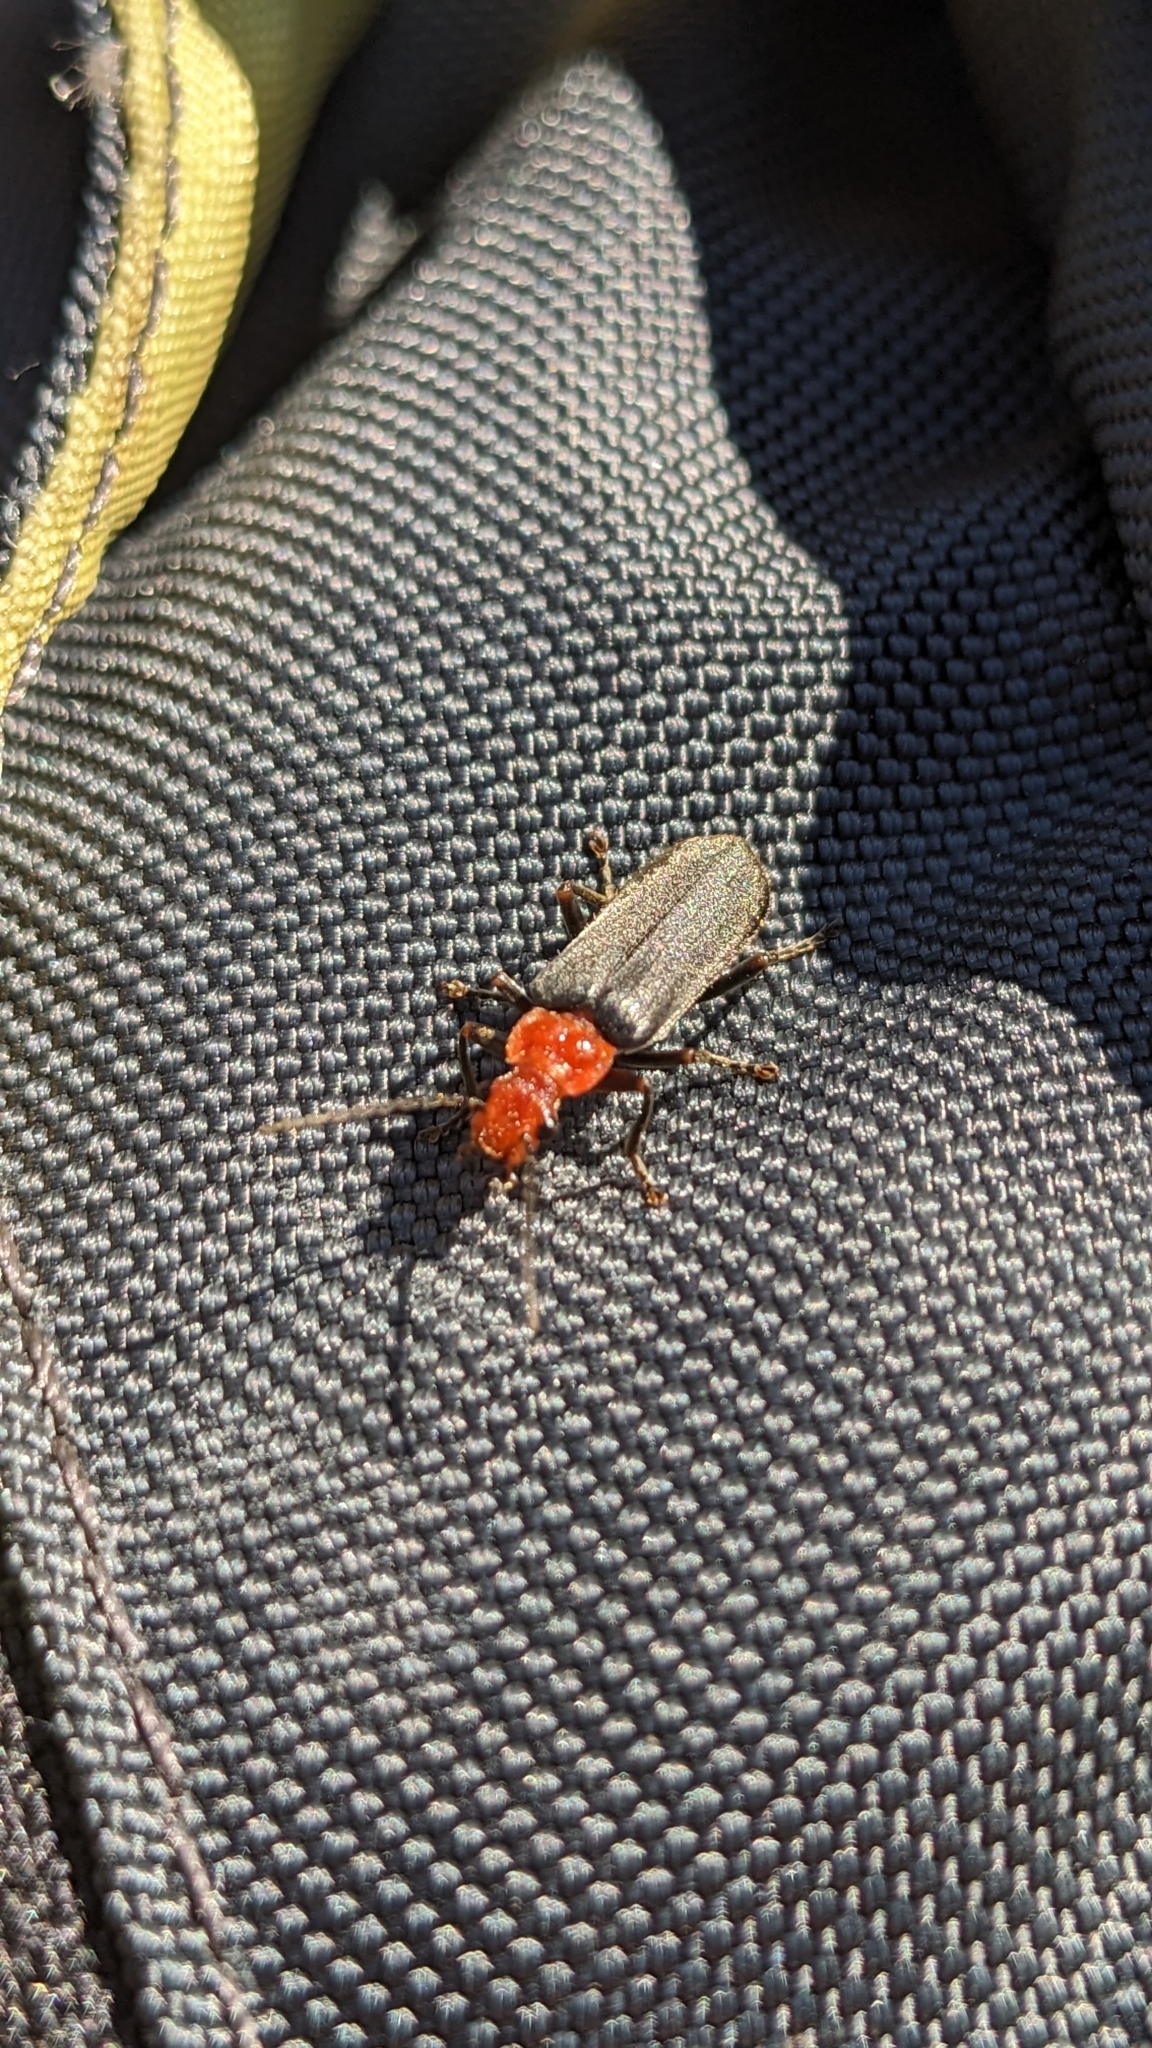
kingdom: Animalia
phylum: Arthropoda
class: Insecta
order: Coleoptera
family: Cantharidae
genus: Pacificanthia
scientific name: Pacificanthia consors
